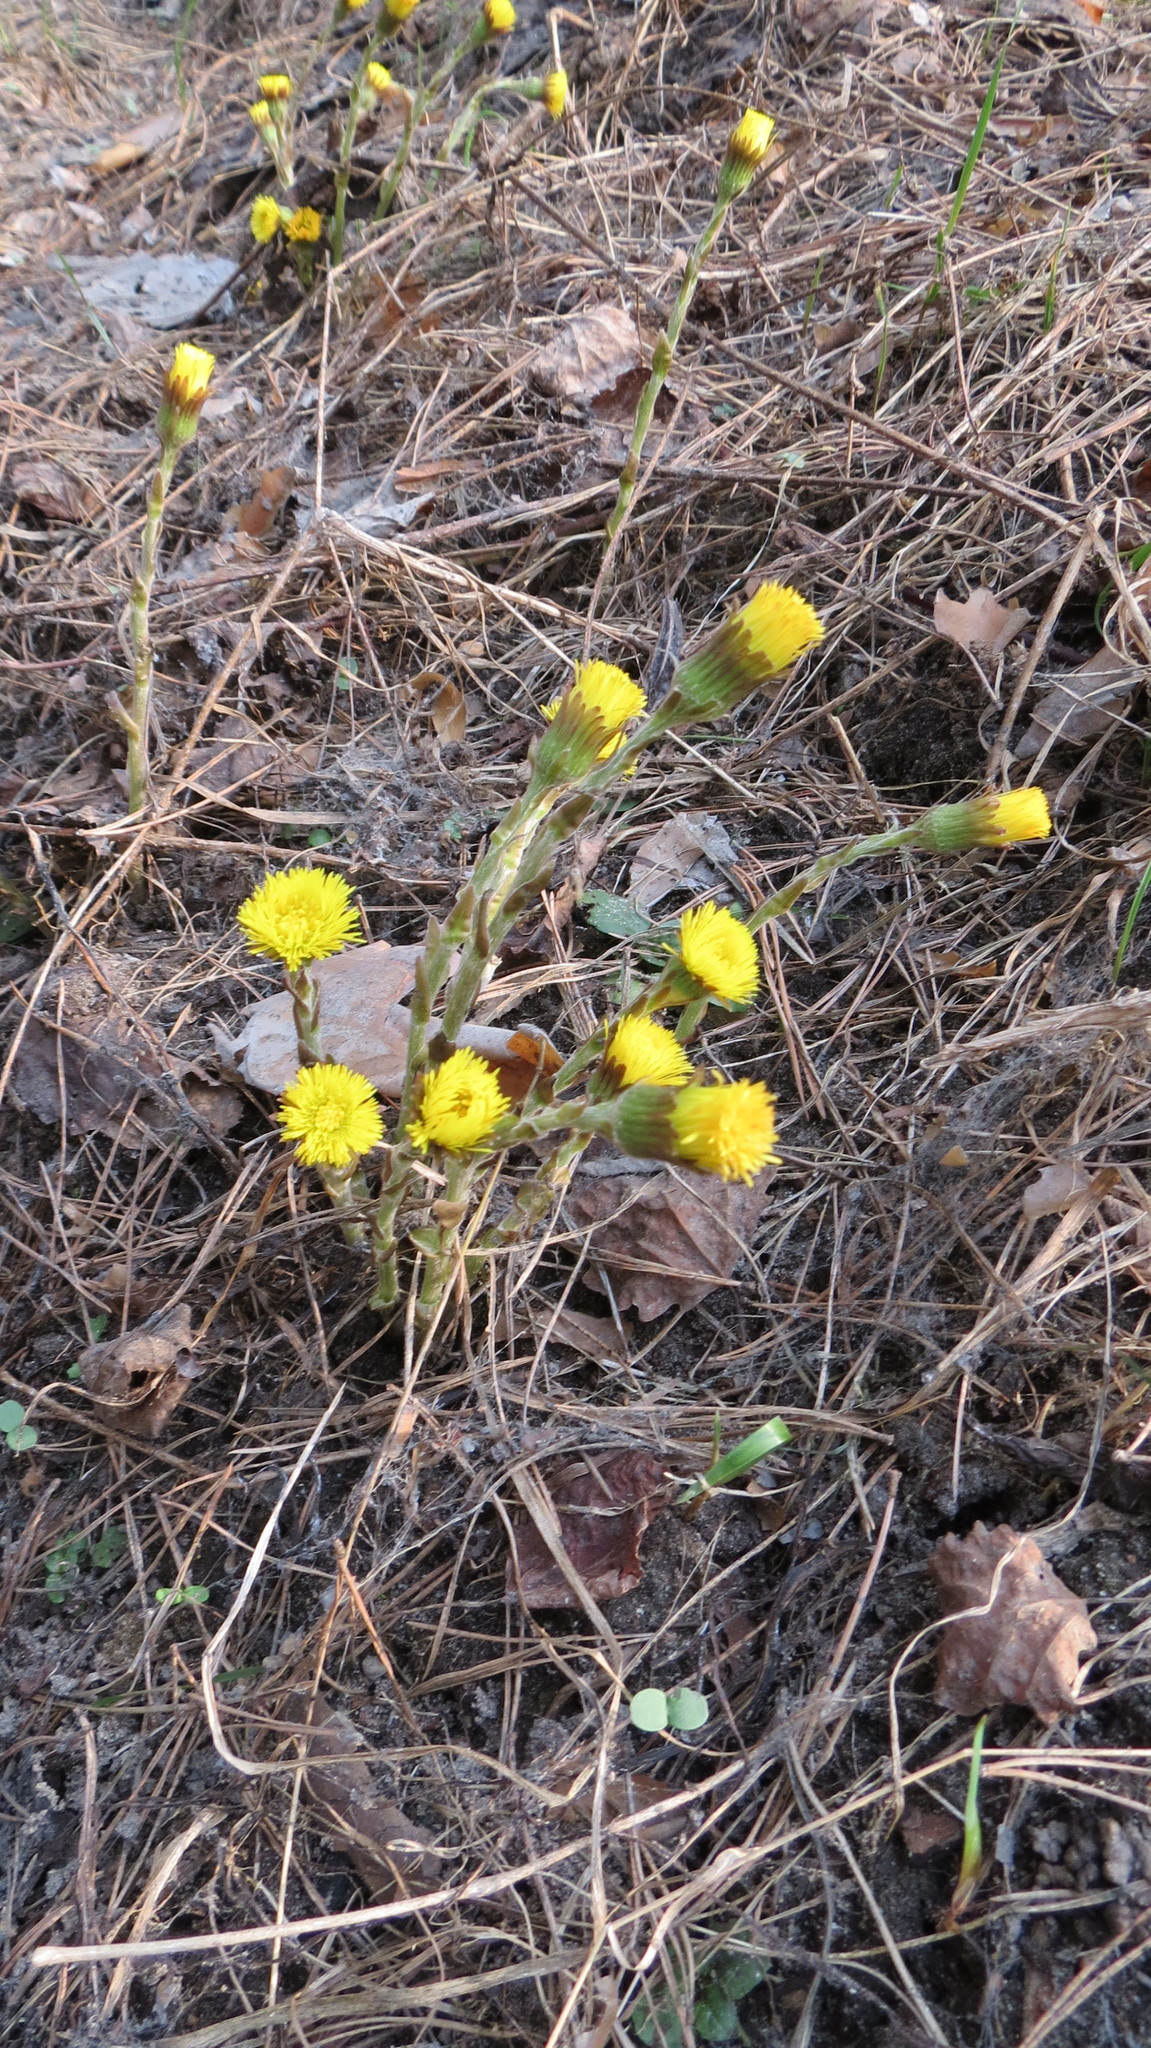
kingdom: Plantae
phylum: Tracheophyta
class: Magnoliopsida
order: Asterales
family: Asteraceae
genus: Tussilago
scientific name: Tussilago farfara
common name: Coltsfoot
